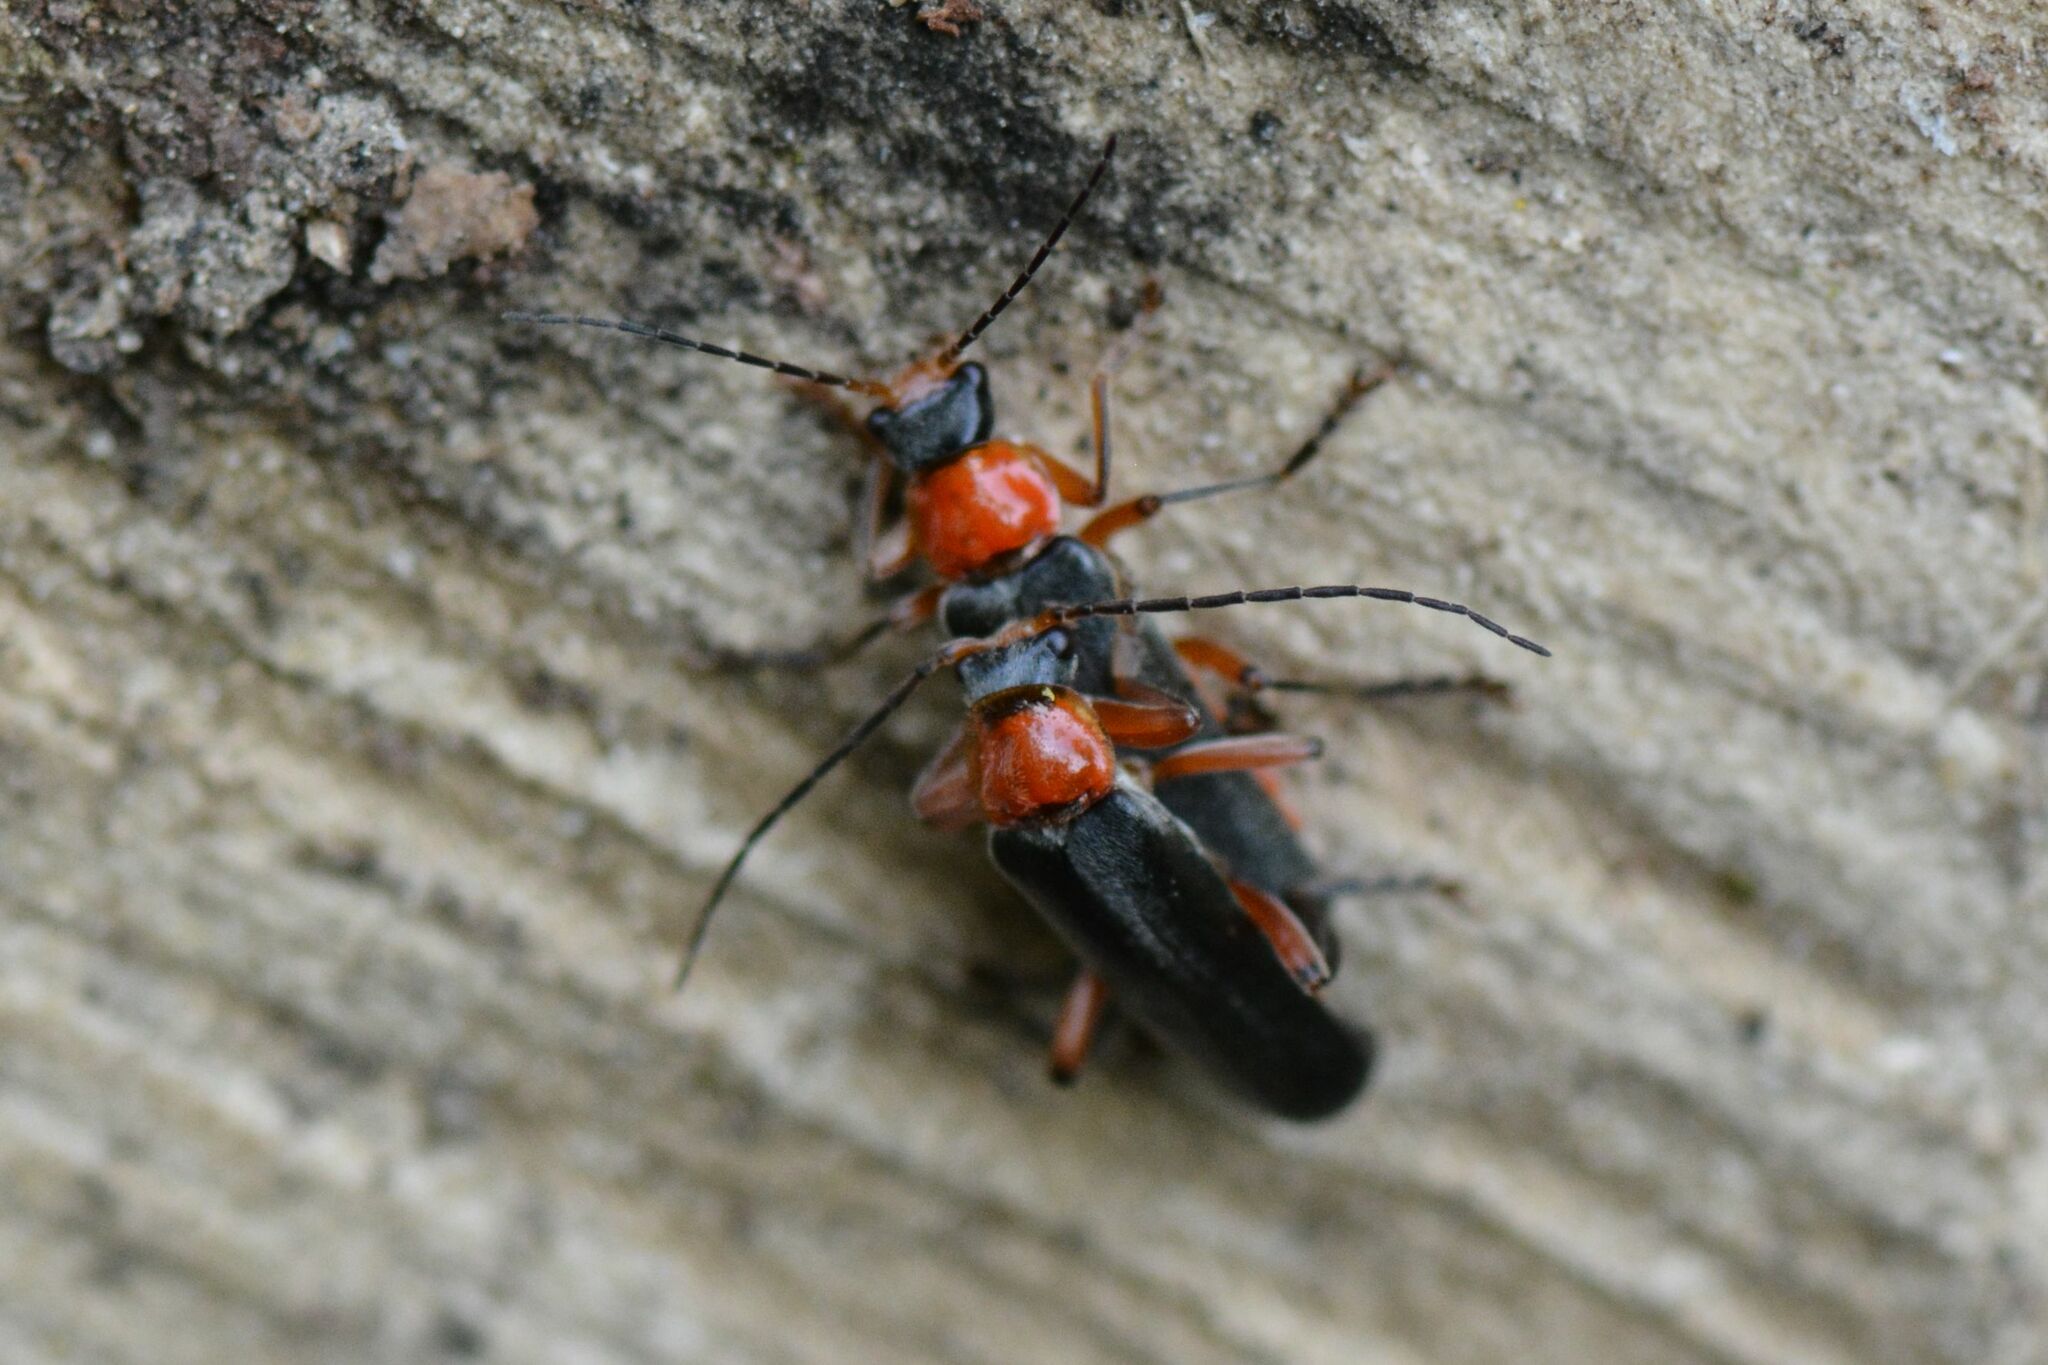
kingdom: Animalia
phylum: Arthropoda
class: Insecta
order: Coleoptera
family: Cantharidae
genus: Cantharis
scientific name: Cantharis pellucida
